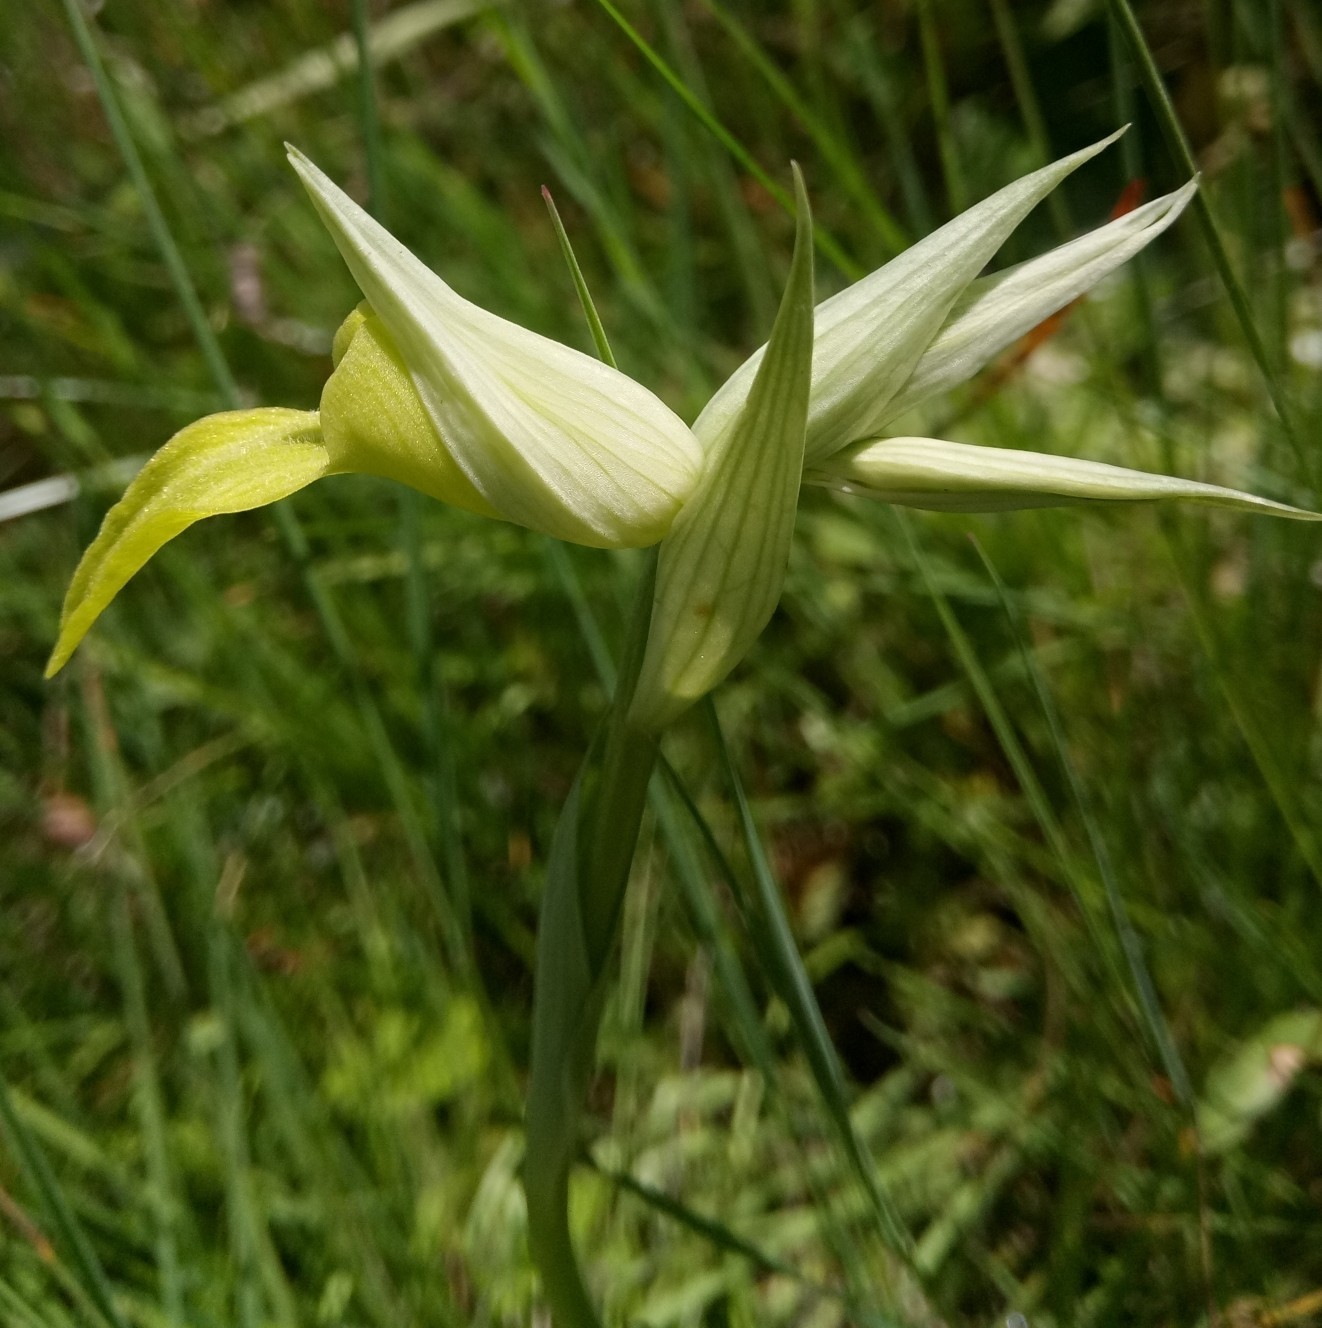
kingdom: Plantae
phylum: Tracheophyta
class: Liliopsida
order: Asparagales
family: Orchidaceae
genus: Serapias
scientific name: Serapias lingua
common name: Tongue-orchid
